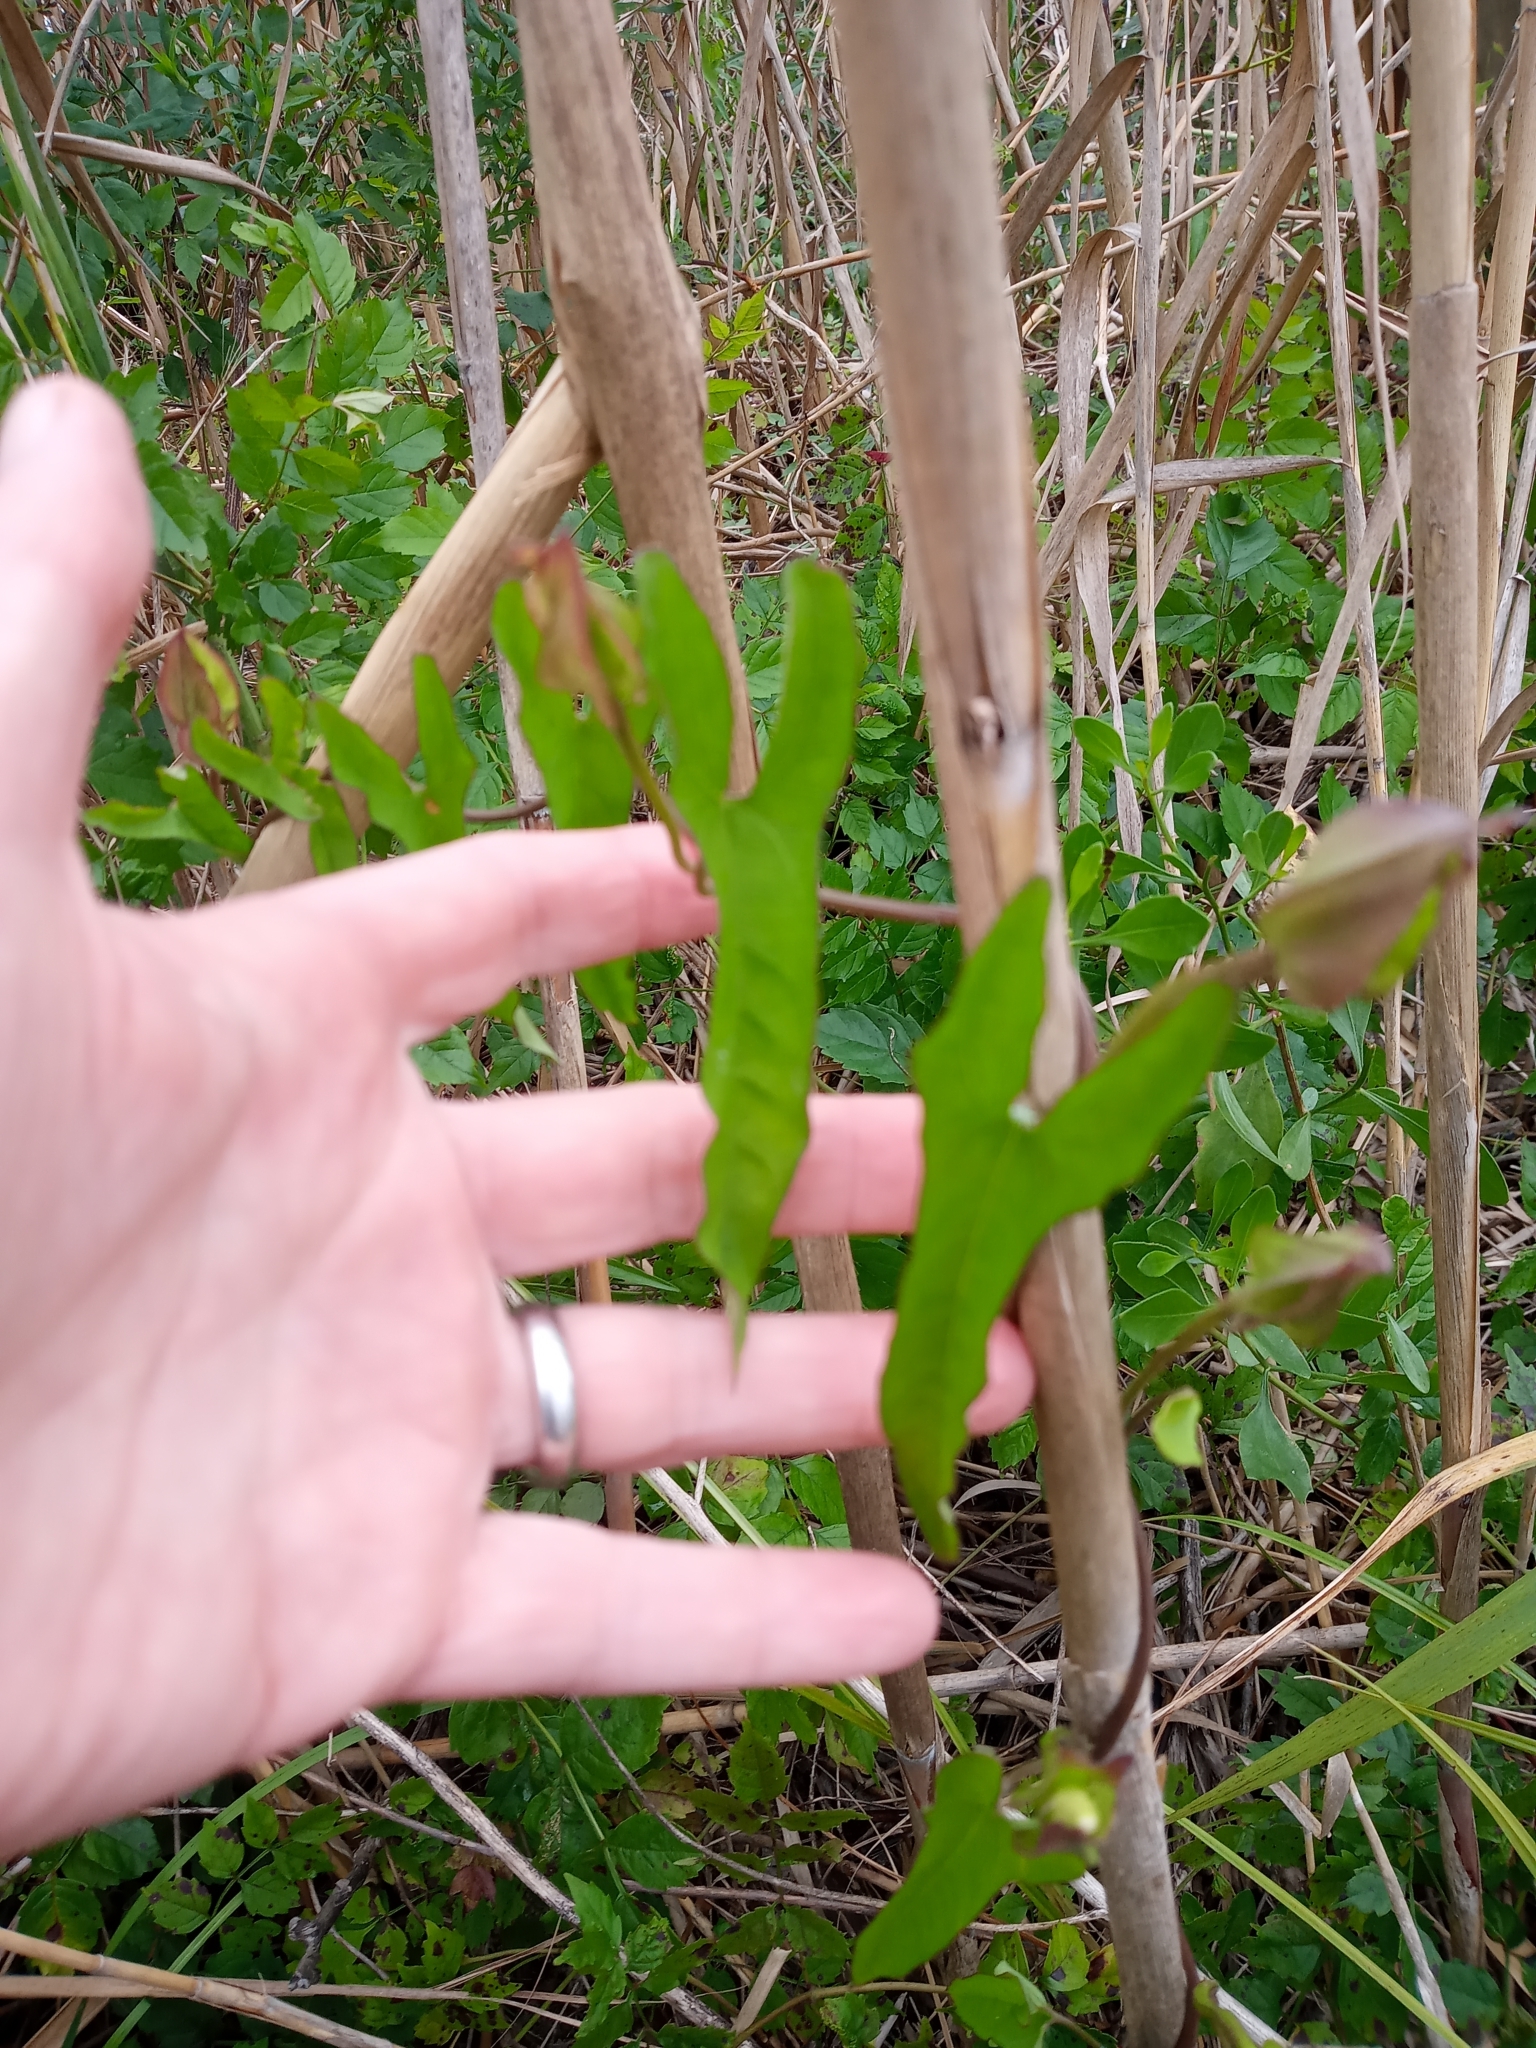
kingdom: Plantae
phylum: Tracheophyta
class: Magnoliopsida
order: Solanales
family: Convolvulaceae
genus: Calystegia
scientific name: Calystegia sepium
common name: Hedge bindweed
